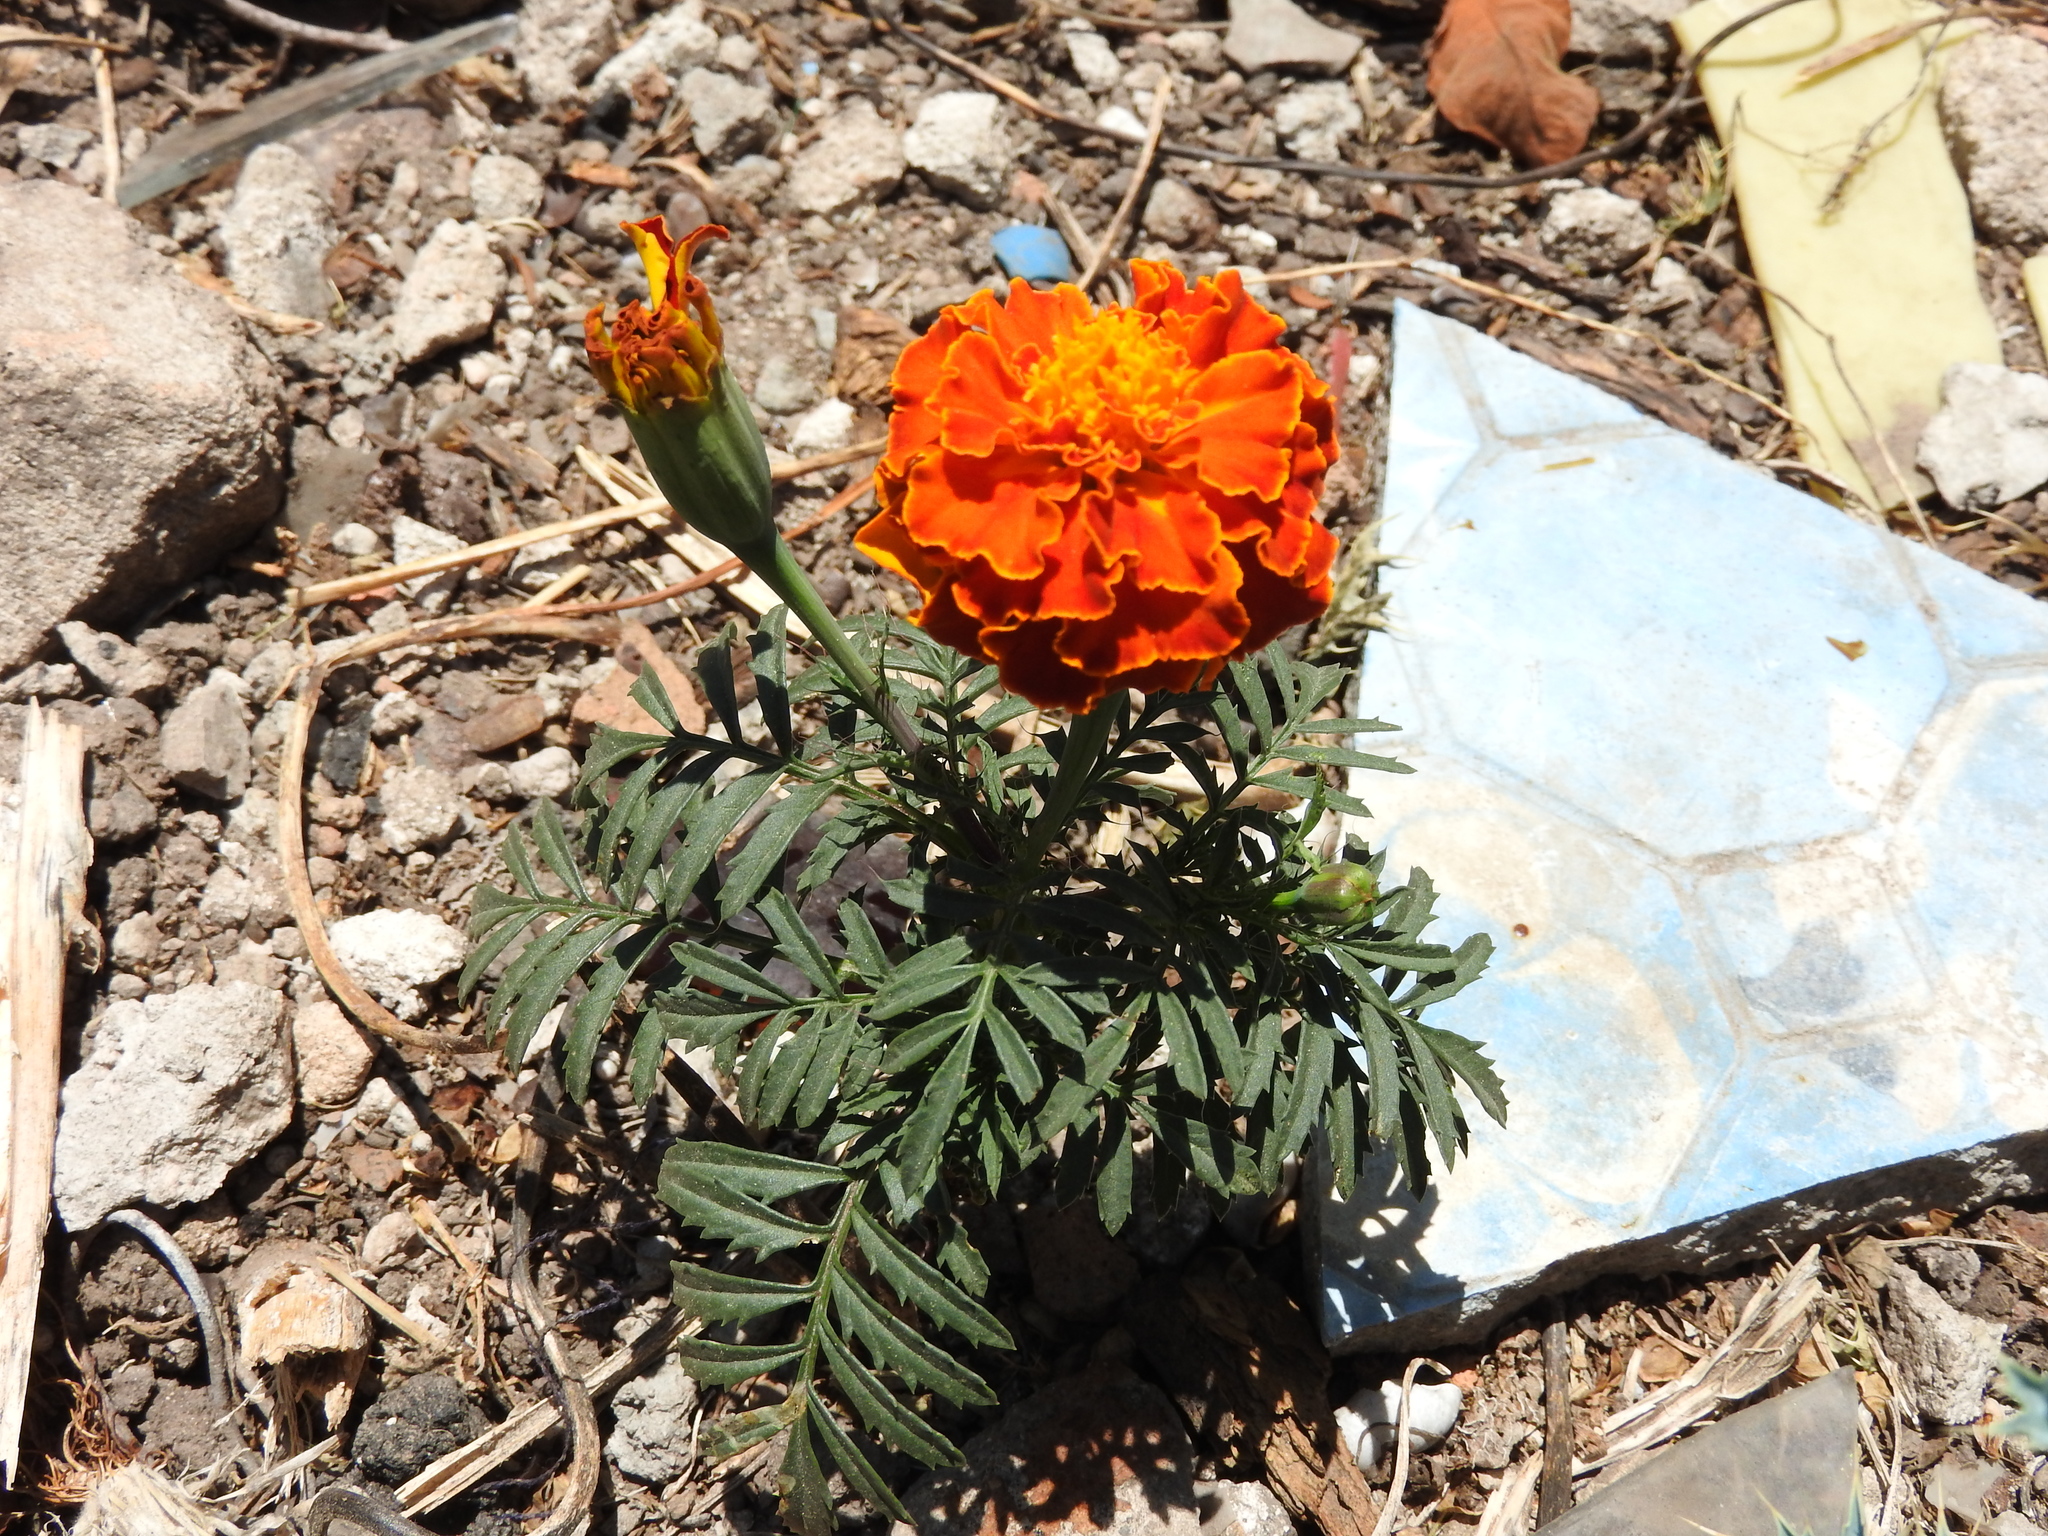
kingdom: Plantae
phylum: Tracheophyta
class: Magnoliopsida
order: Asterales
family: Asteraceae
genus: Tagetes
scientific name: Tagetes erecta
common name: African marigold
